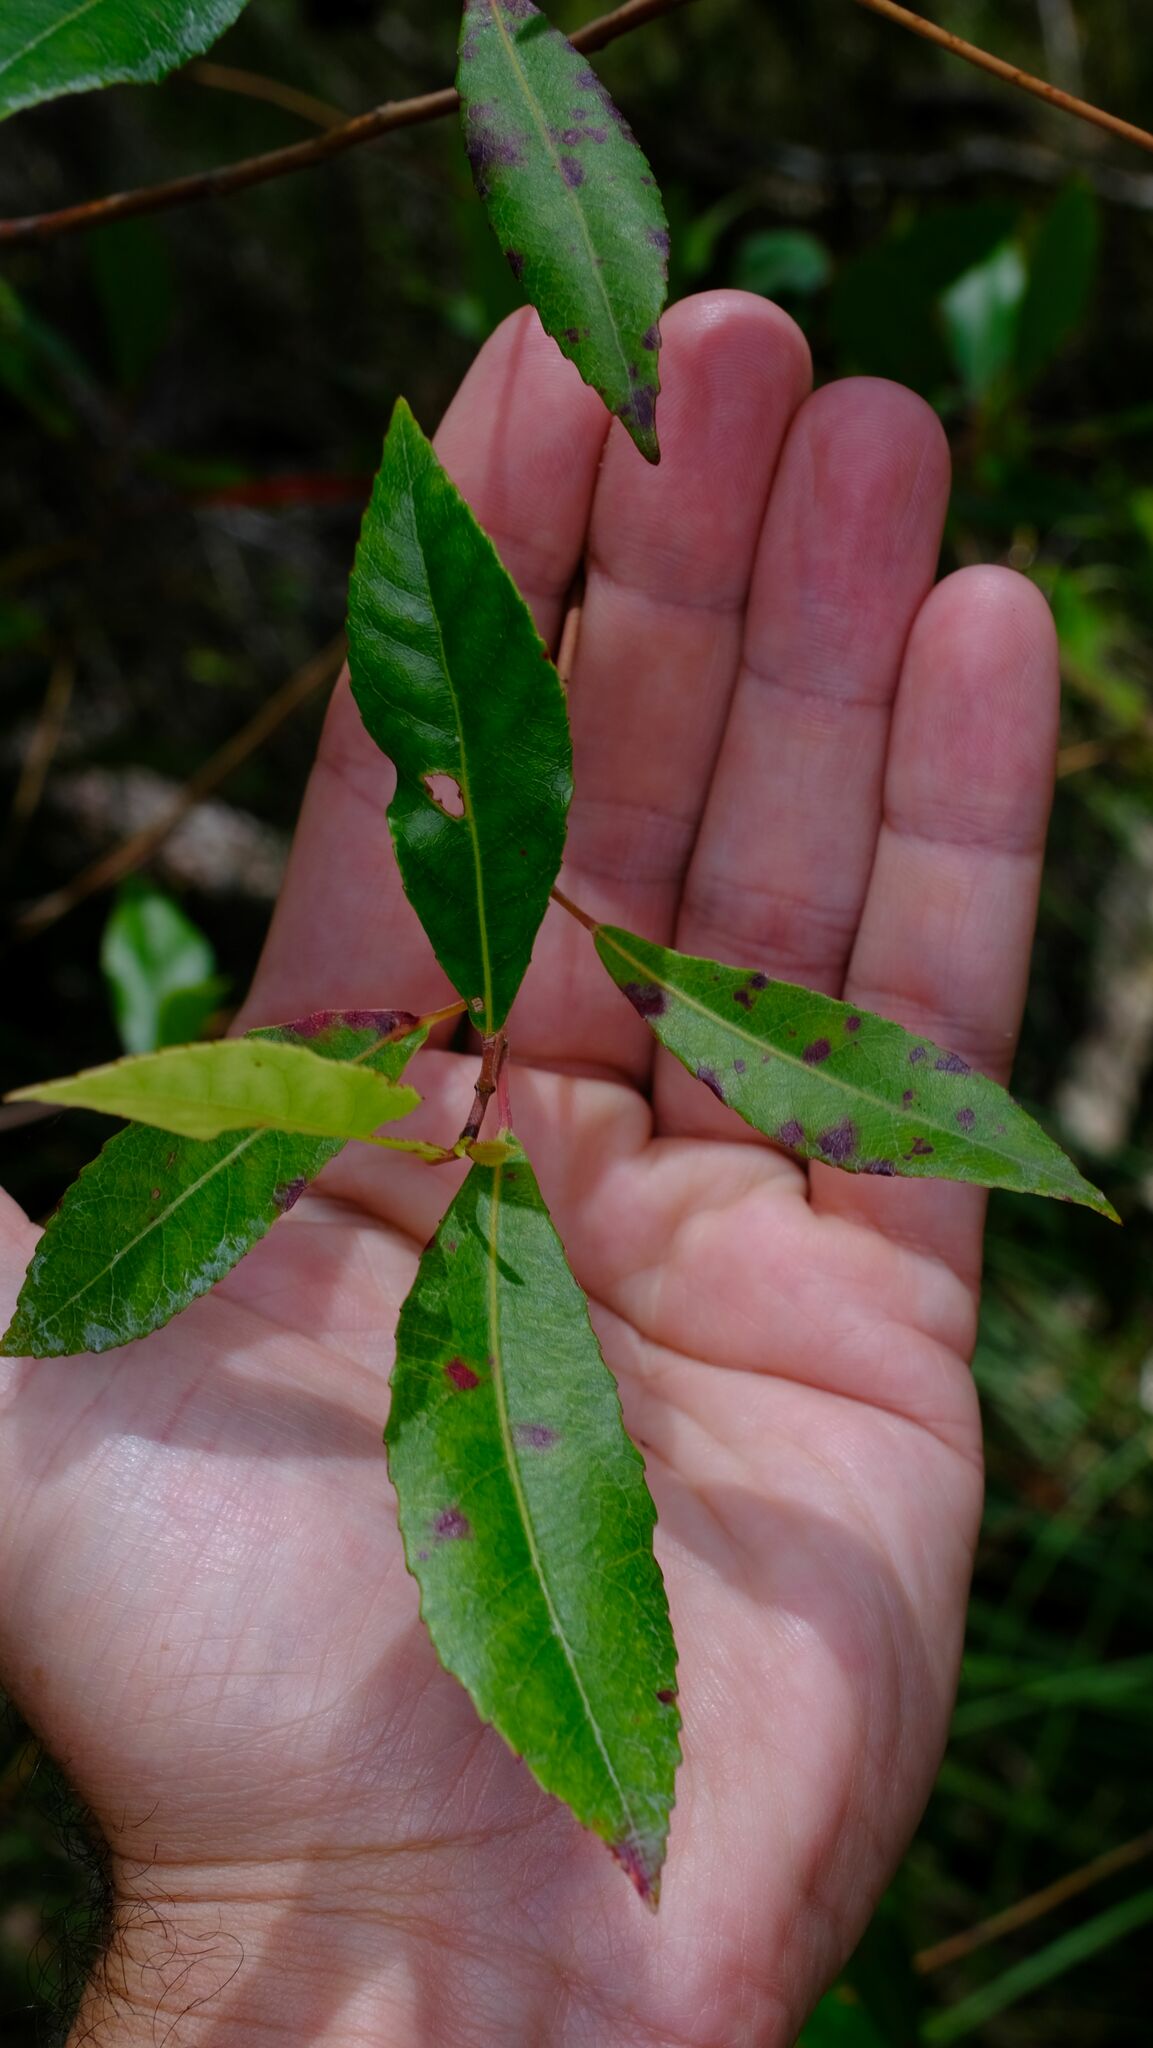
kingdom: Plantae
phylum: Tracheophyta
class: Magnoliopsida
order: Oxalidales
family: Elaeocarpaceae
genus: Elaeocarpus
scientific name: Elaeocarpus reticulatus
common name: Ash quandong
